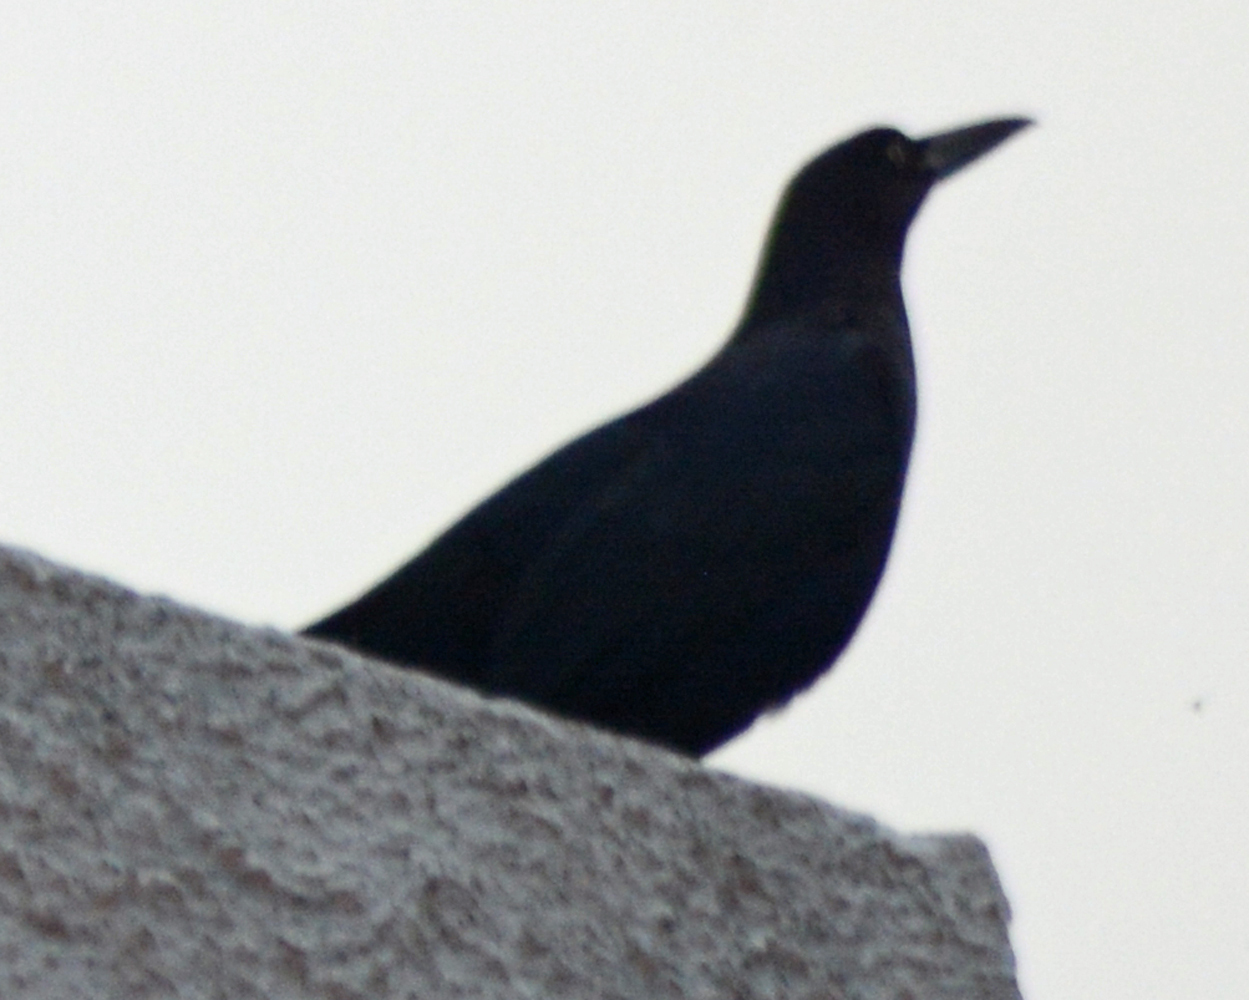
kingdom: Animalia
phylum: Chordata
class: Aves
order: Passeriformes
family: Icteridae
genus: Quiscalus
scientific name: Quiscalus mexicanus
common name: Great-tailed grackle
